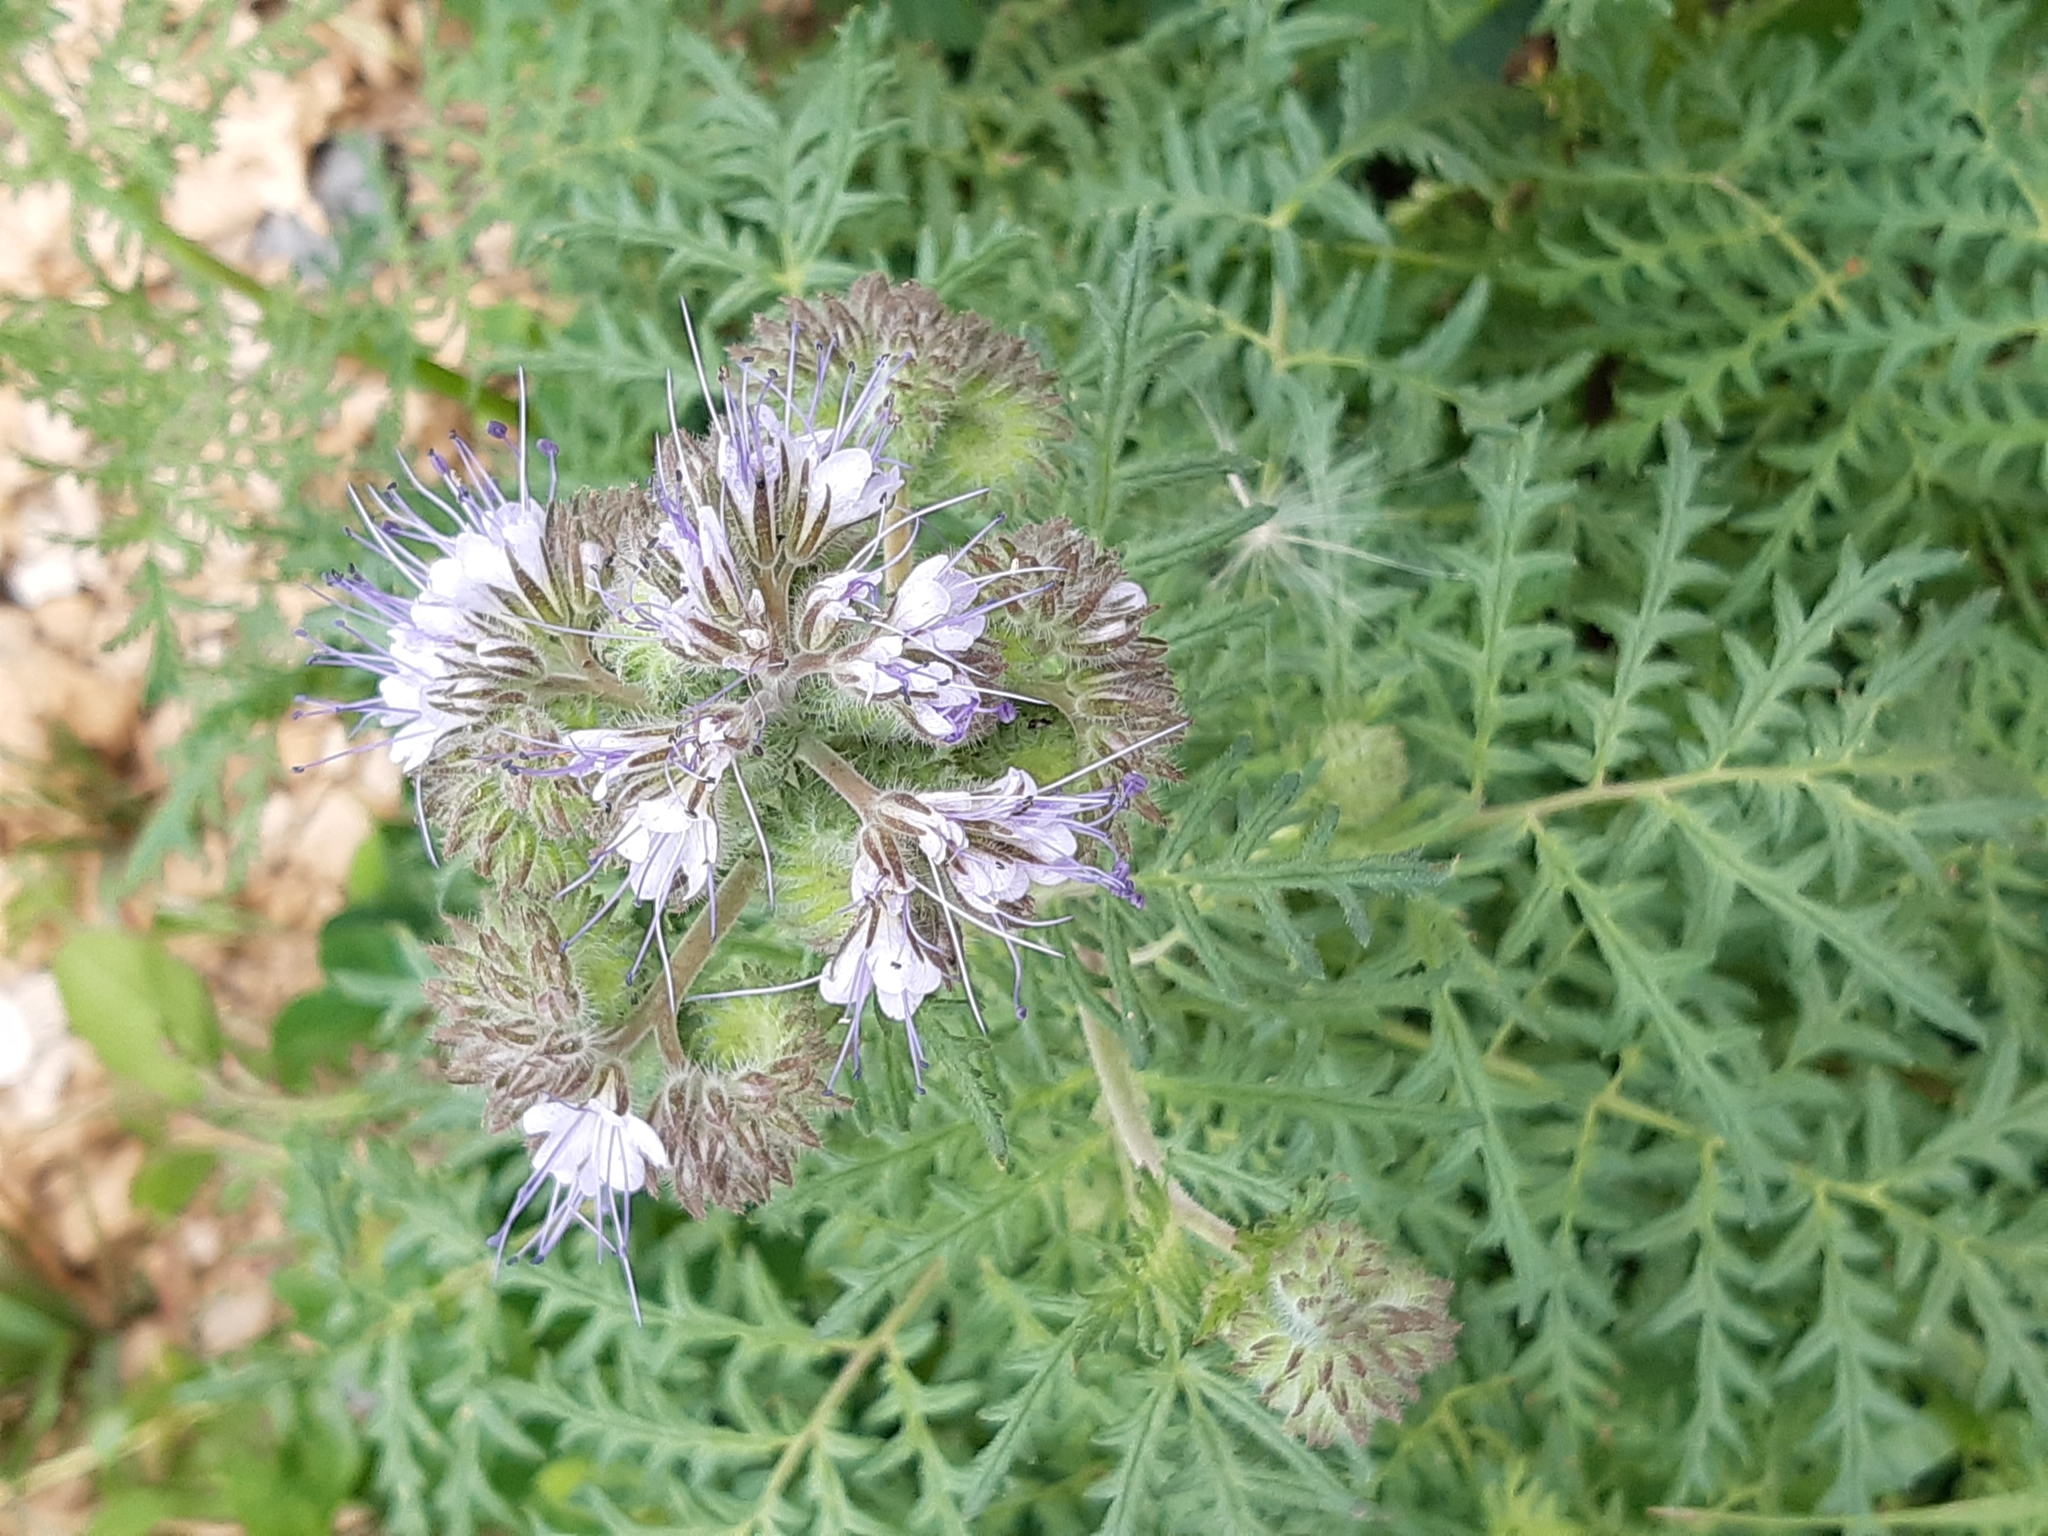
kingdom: Plantae
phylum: Tracheophyta
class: Magnoliopsida
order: Boraginales
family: Hydrophyllaceae
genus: Phacelia
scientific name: Phacelia tanacetifolia
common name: Phacelia
